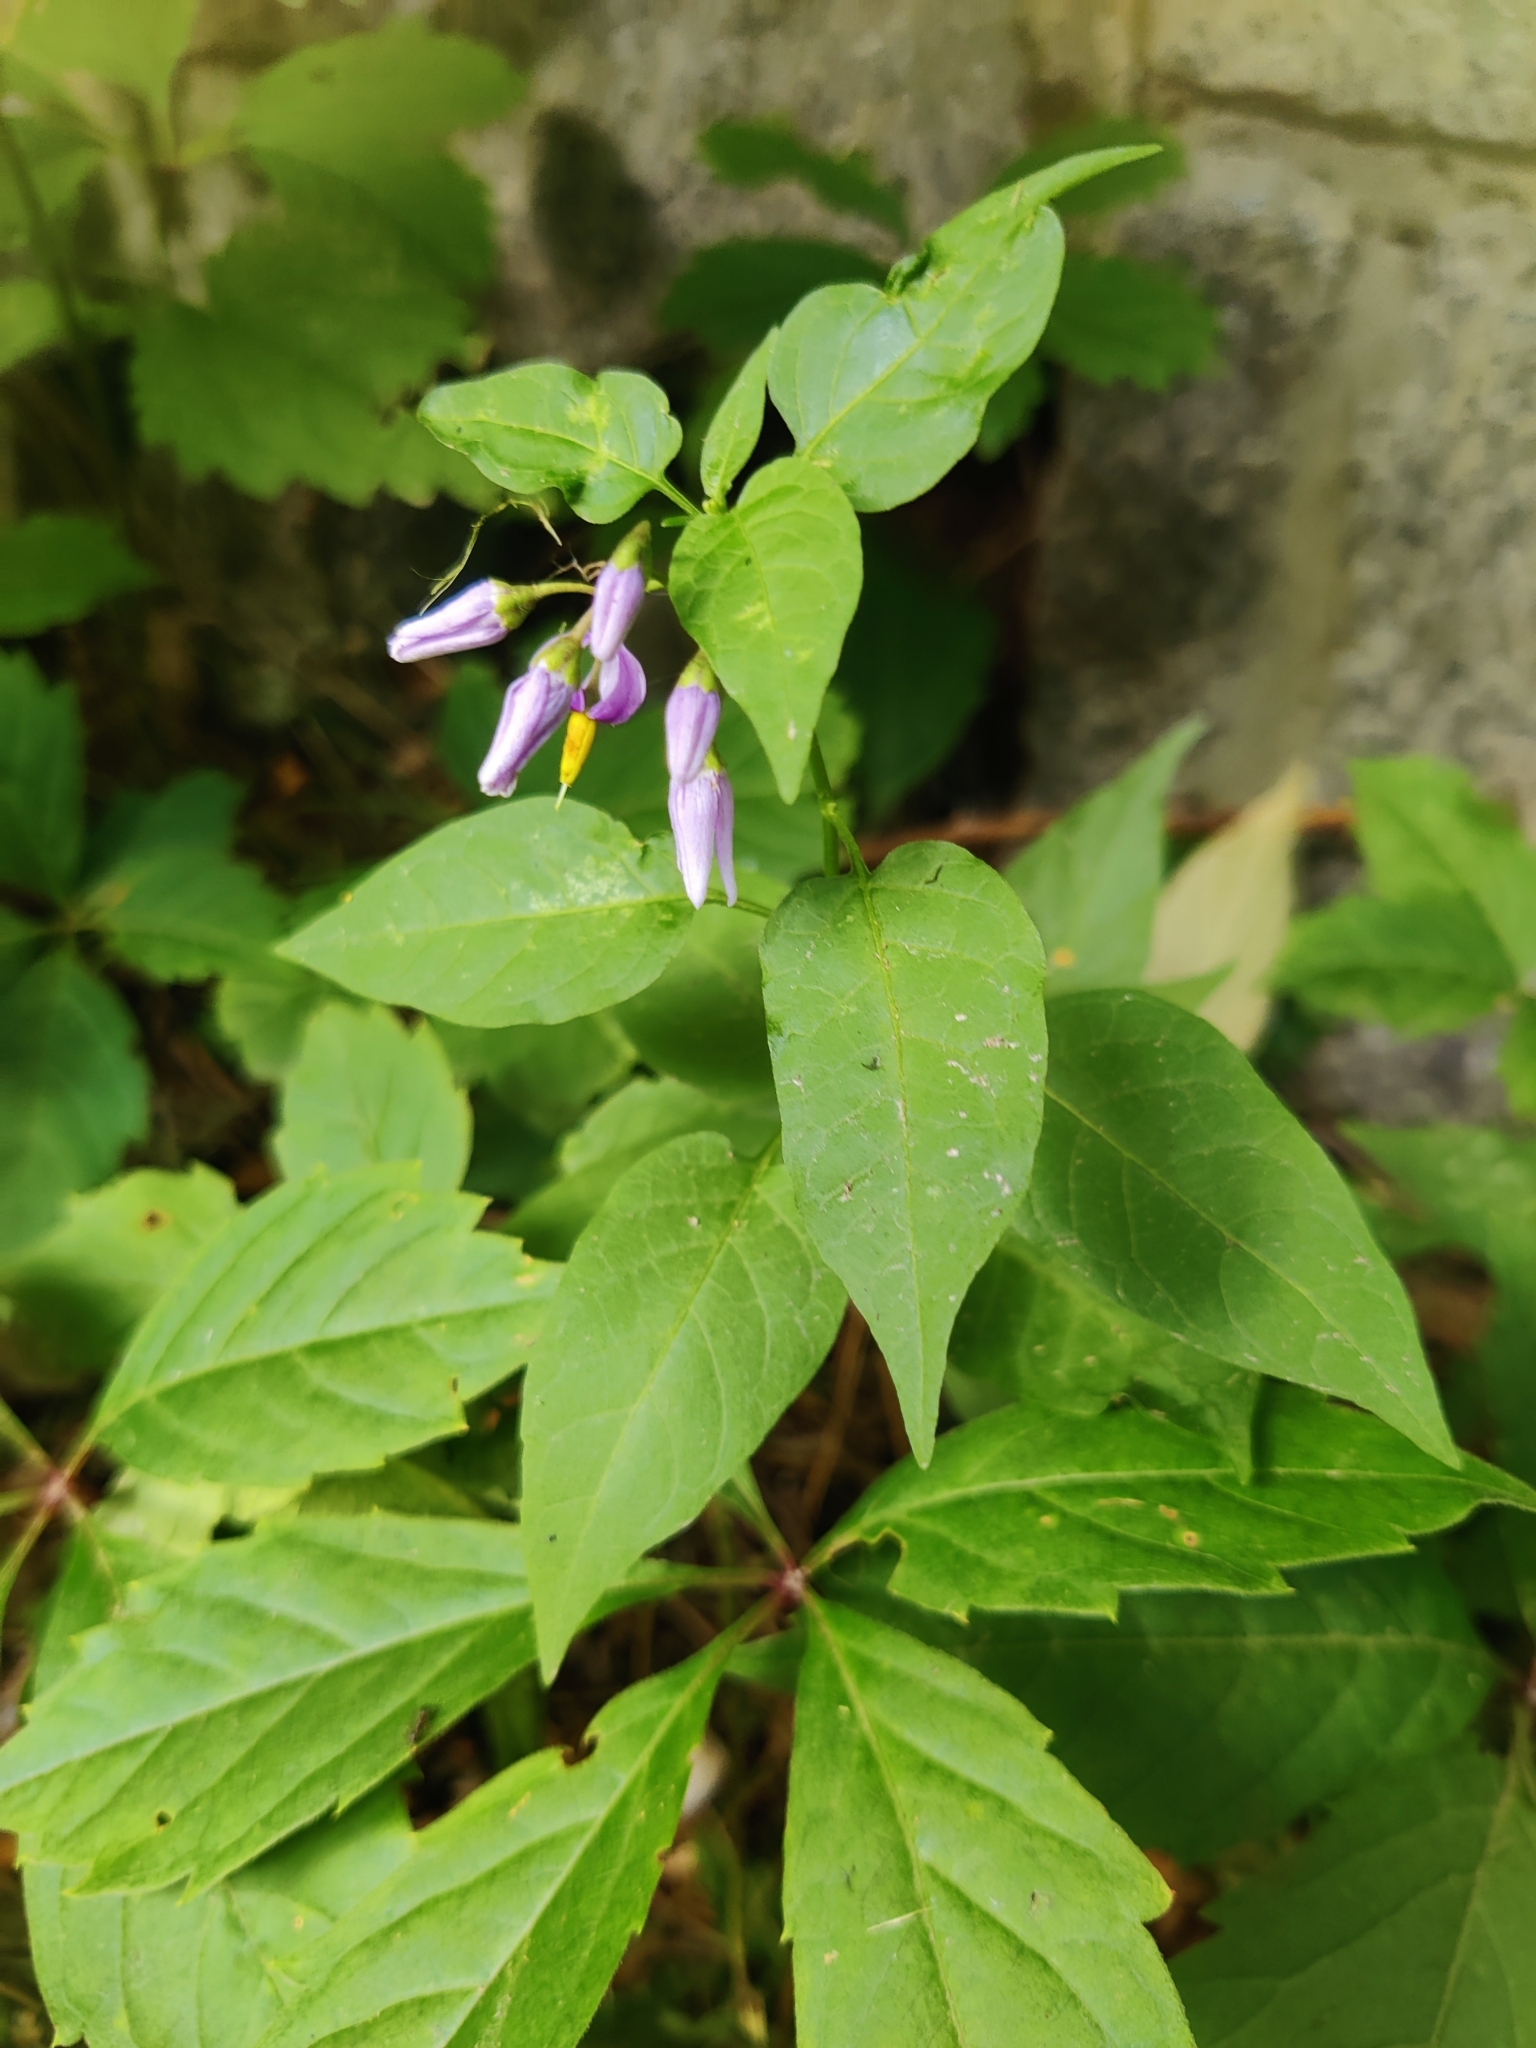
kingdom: Plantae
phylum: Tracheophyta
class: Magnoliopsida
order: Solanales
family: Solanaceae
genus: Solanum
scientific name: Solanum dulcamara
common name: Climbing nightshade
